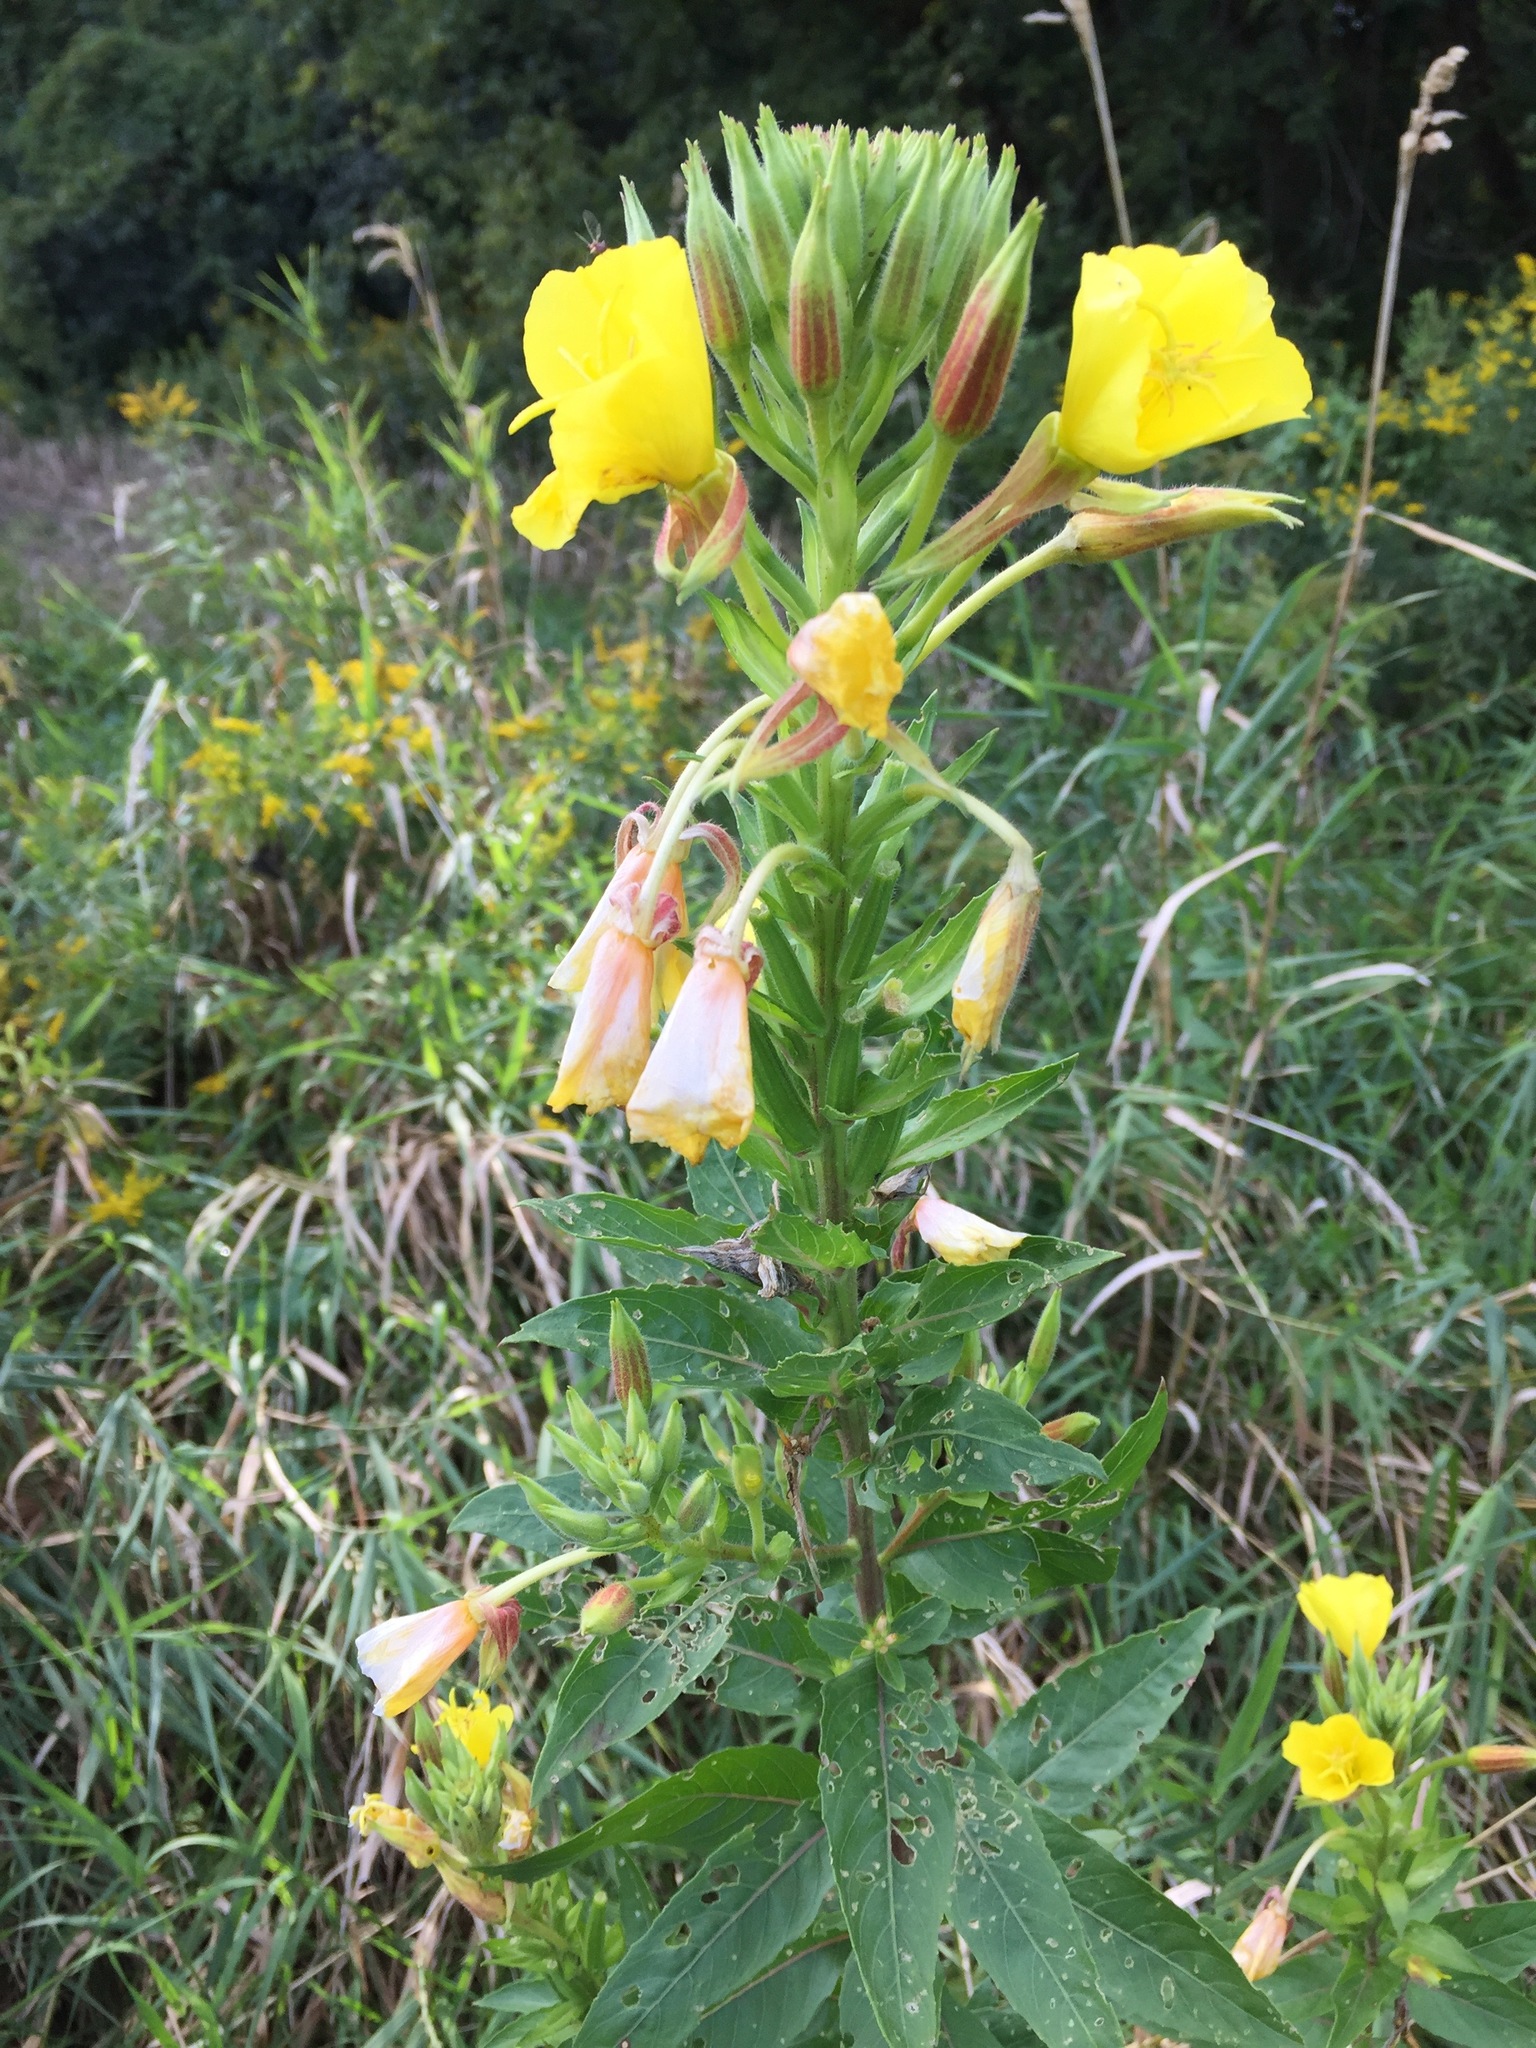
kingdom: Plantae
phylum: Tracheophyta
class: Magnoliopsida
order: Myrtales
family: Onagraceae
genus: Oenothera
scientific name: Oenothera biennis
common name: Common evening-primrose
